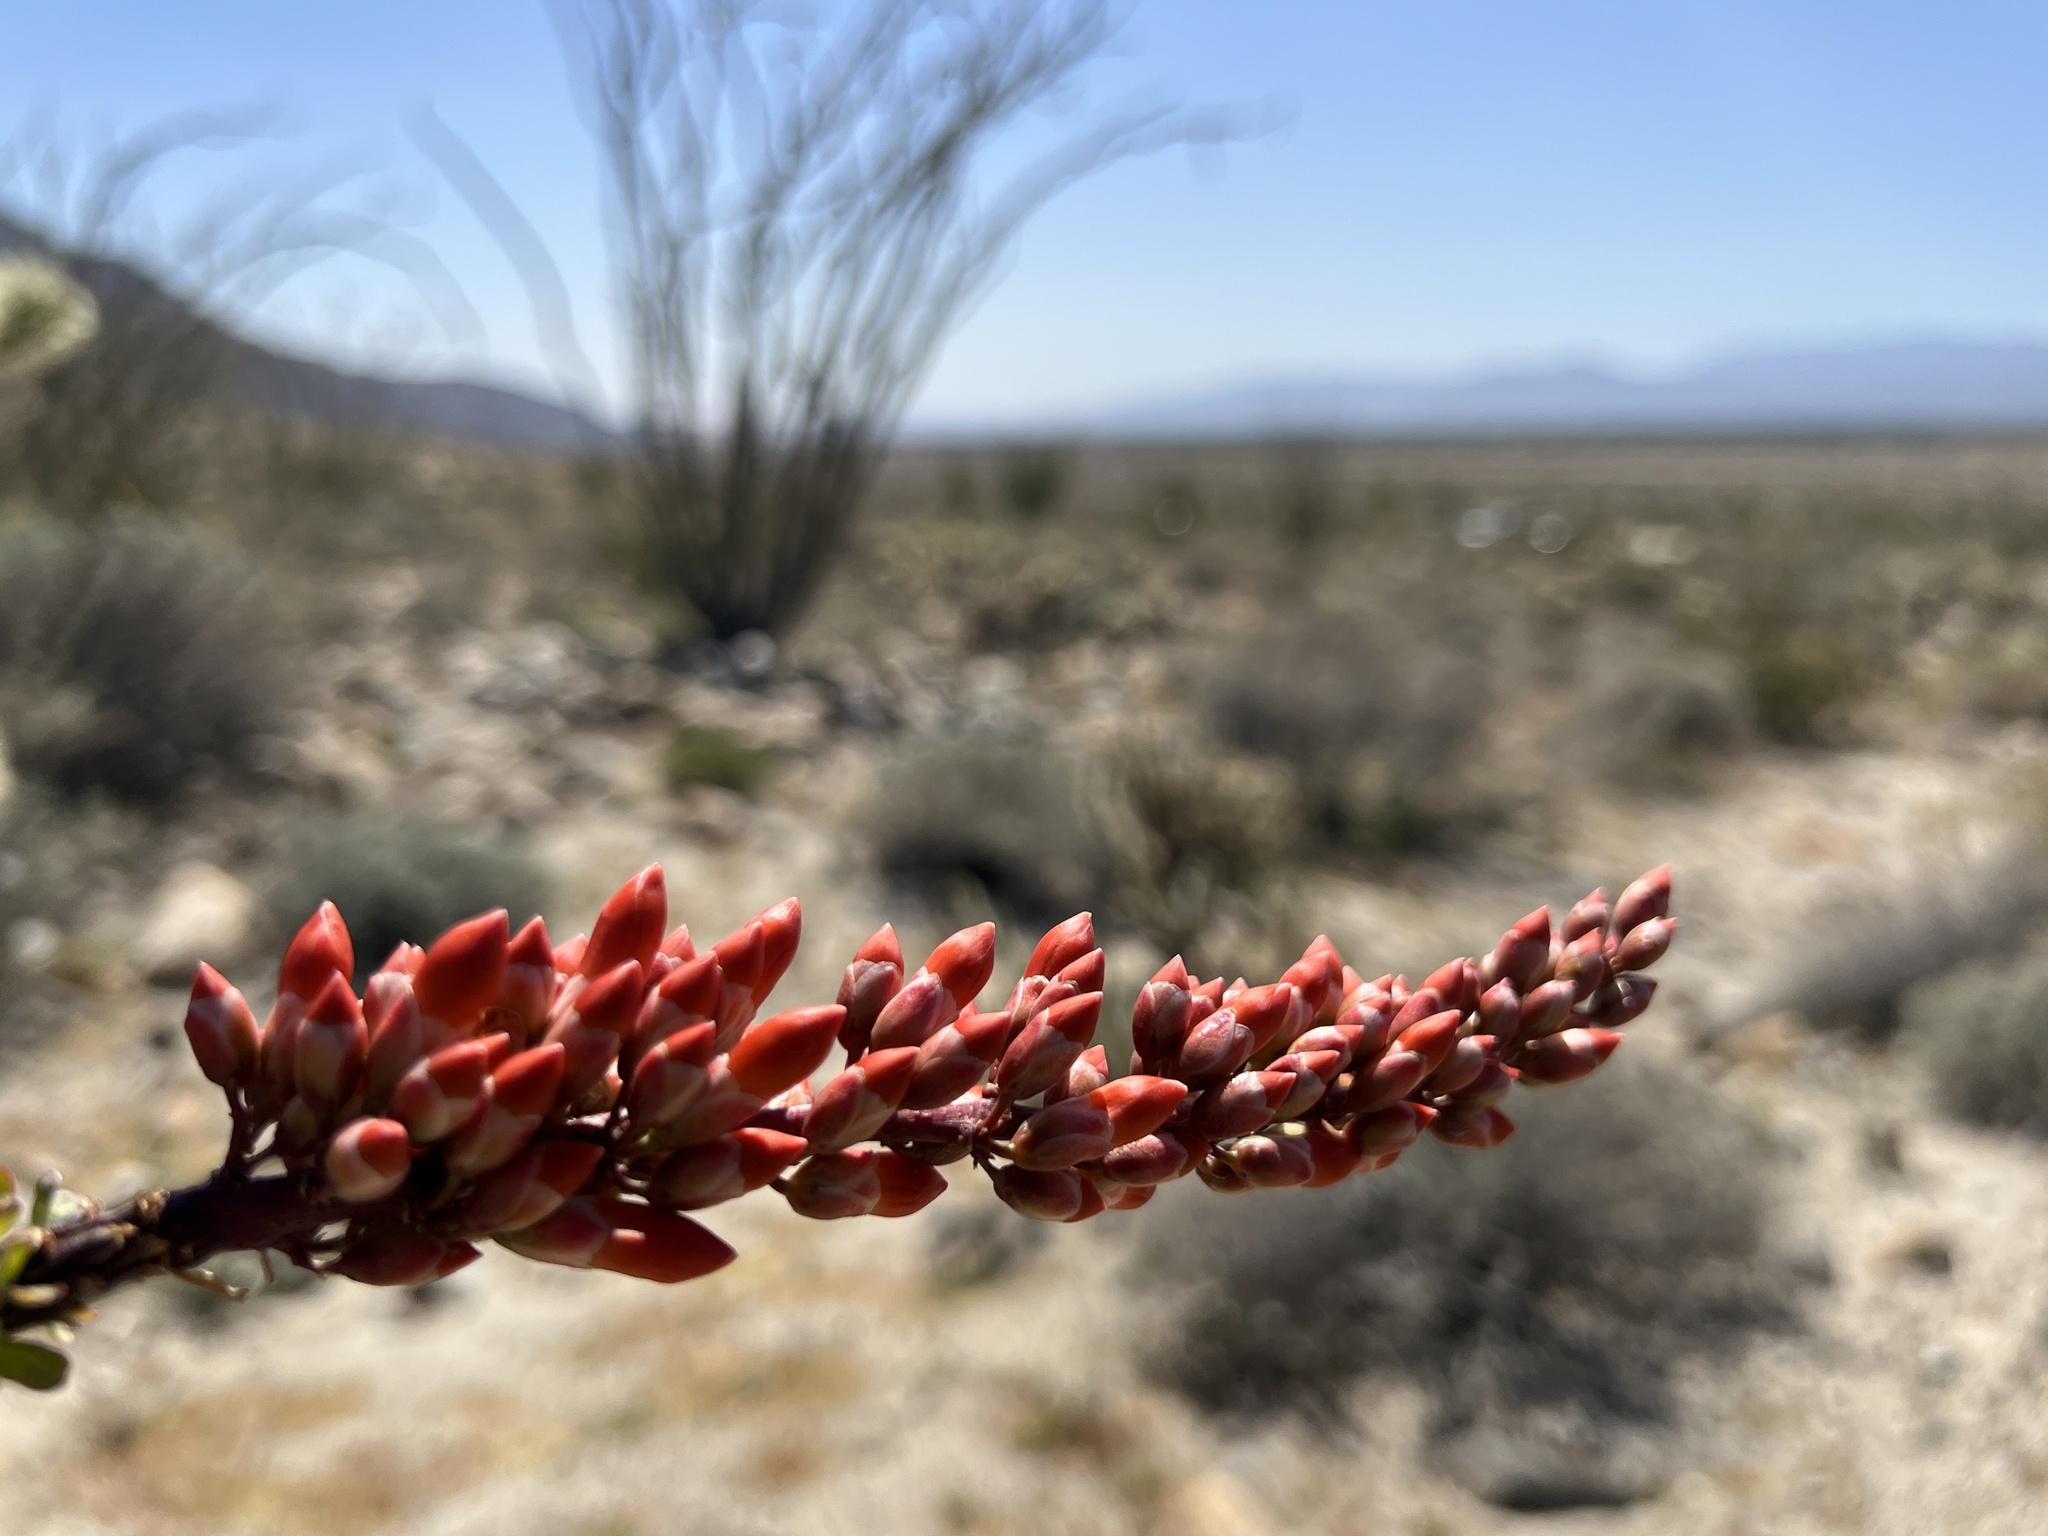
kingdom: Plantae
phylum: Tracheophyta
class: Magnoliopsida
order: Ericales
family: Fouquieriaceae
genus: Fouquieria
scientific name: Fouquieria splendens
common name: Vine-cactus
